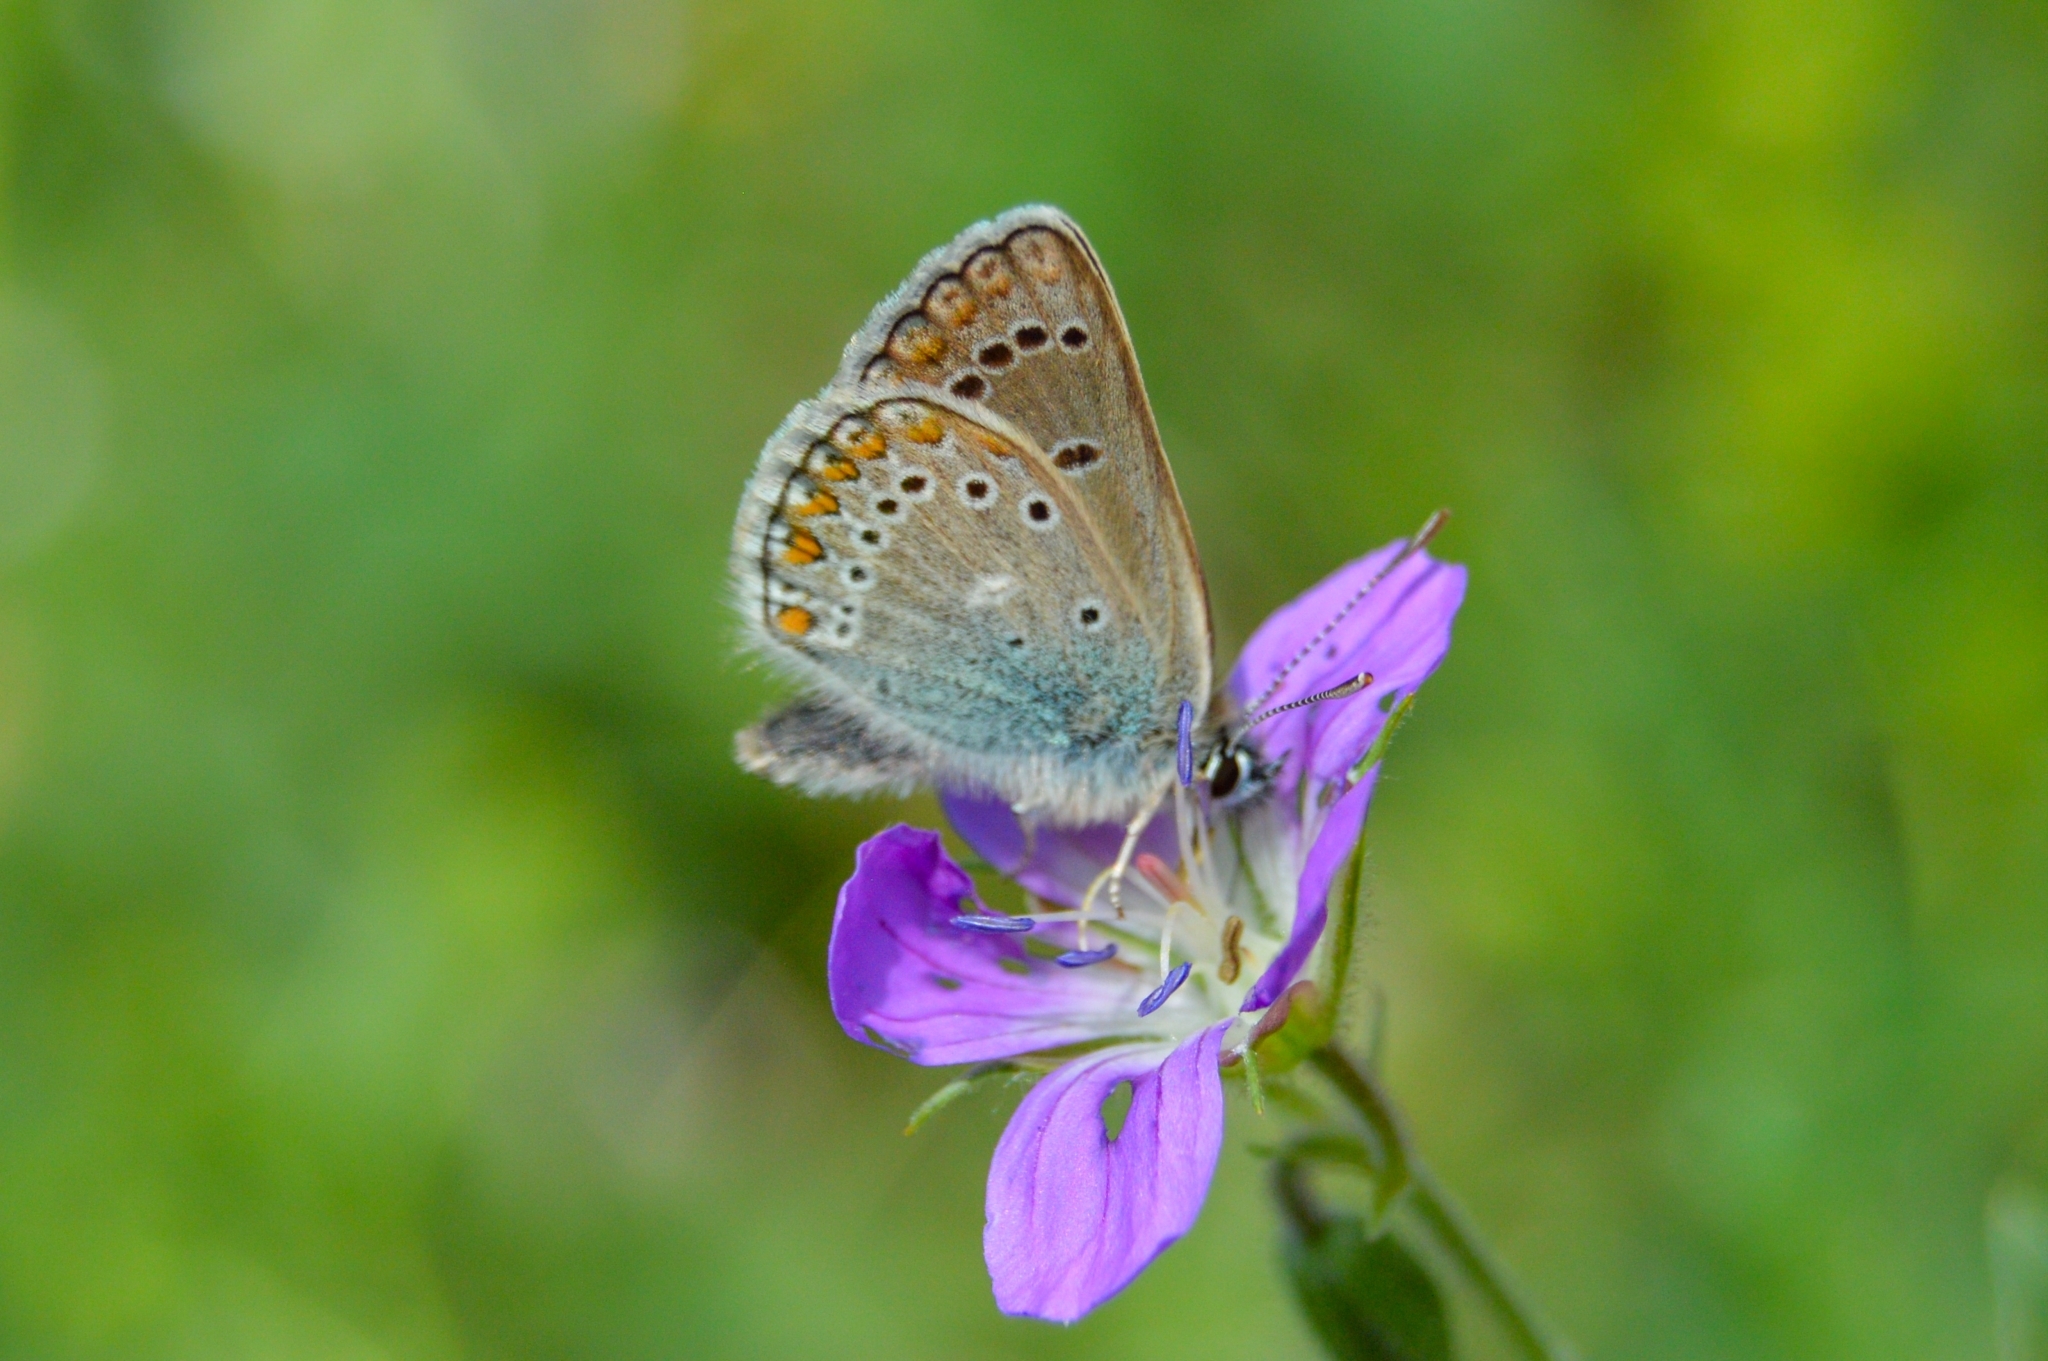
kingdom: Animalia
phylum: Arthropoda
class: Insecta
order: Lepidoptera
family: Lycaenidae
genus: Eumedonia
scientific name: Eumedonia eumedon
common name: Geranium argus
